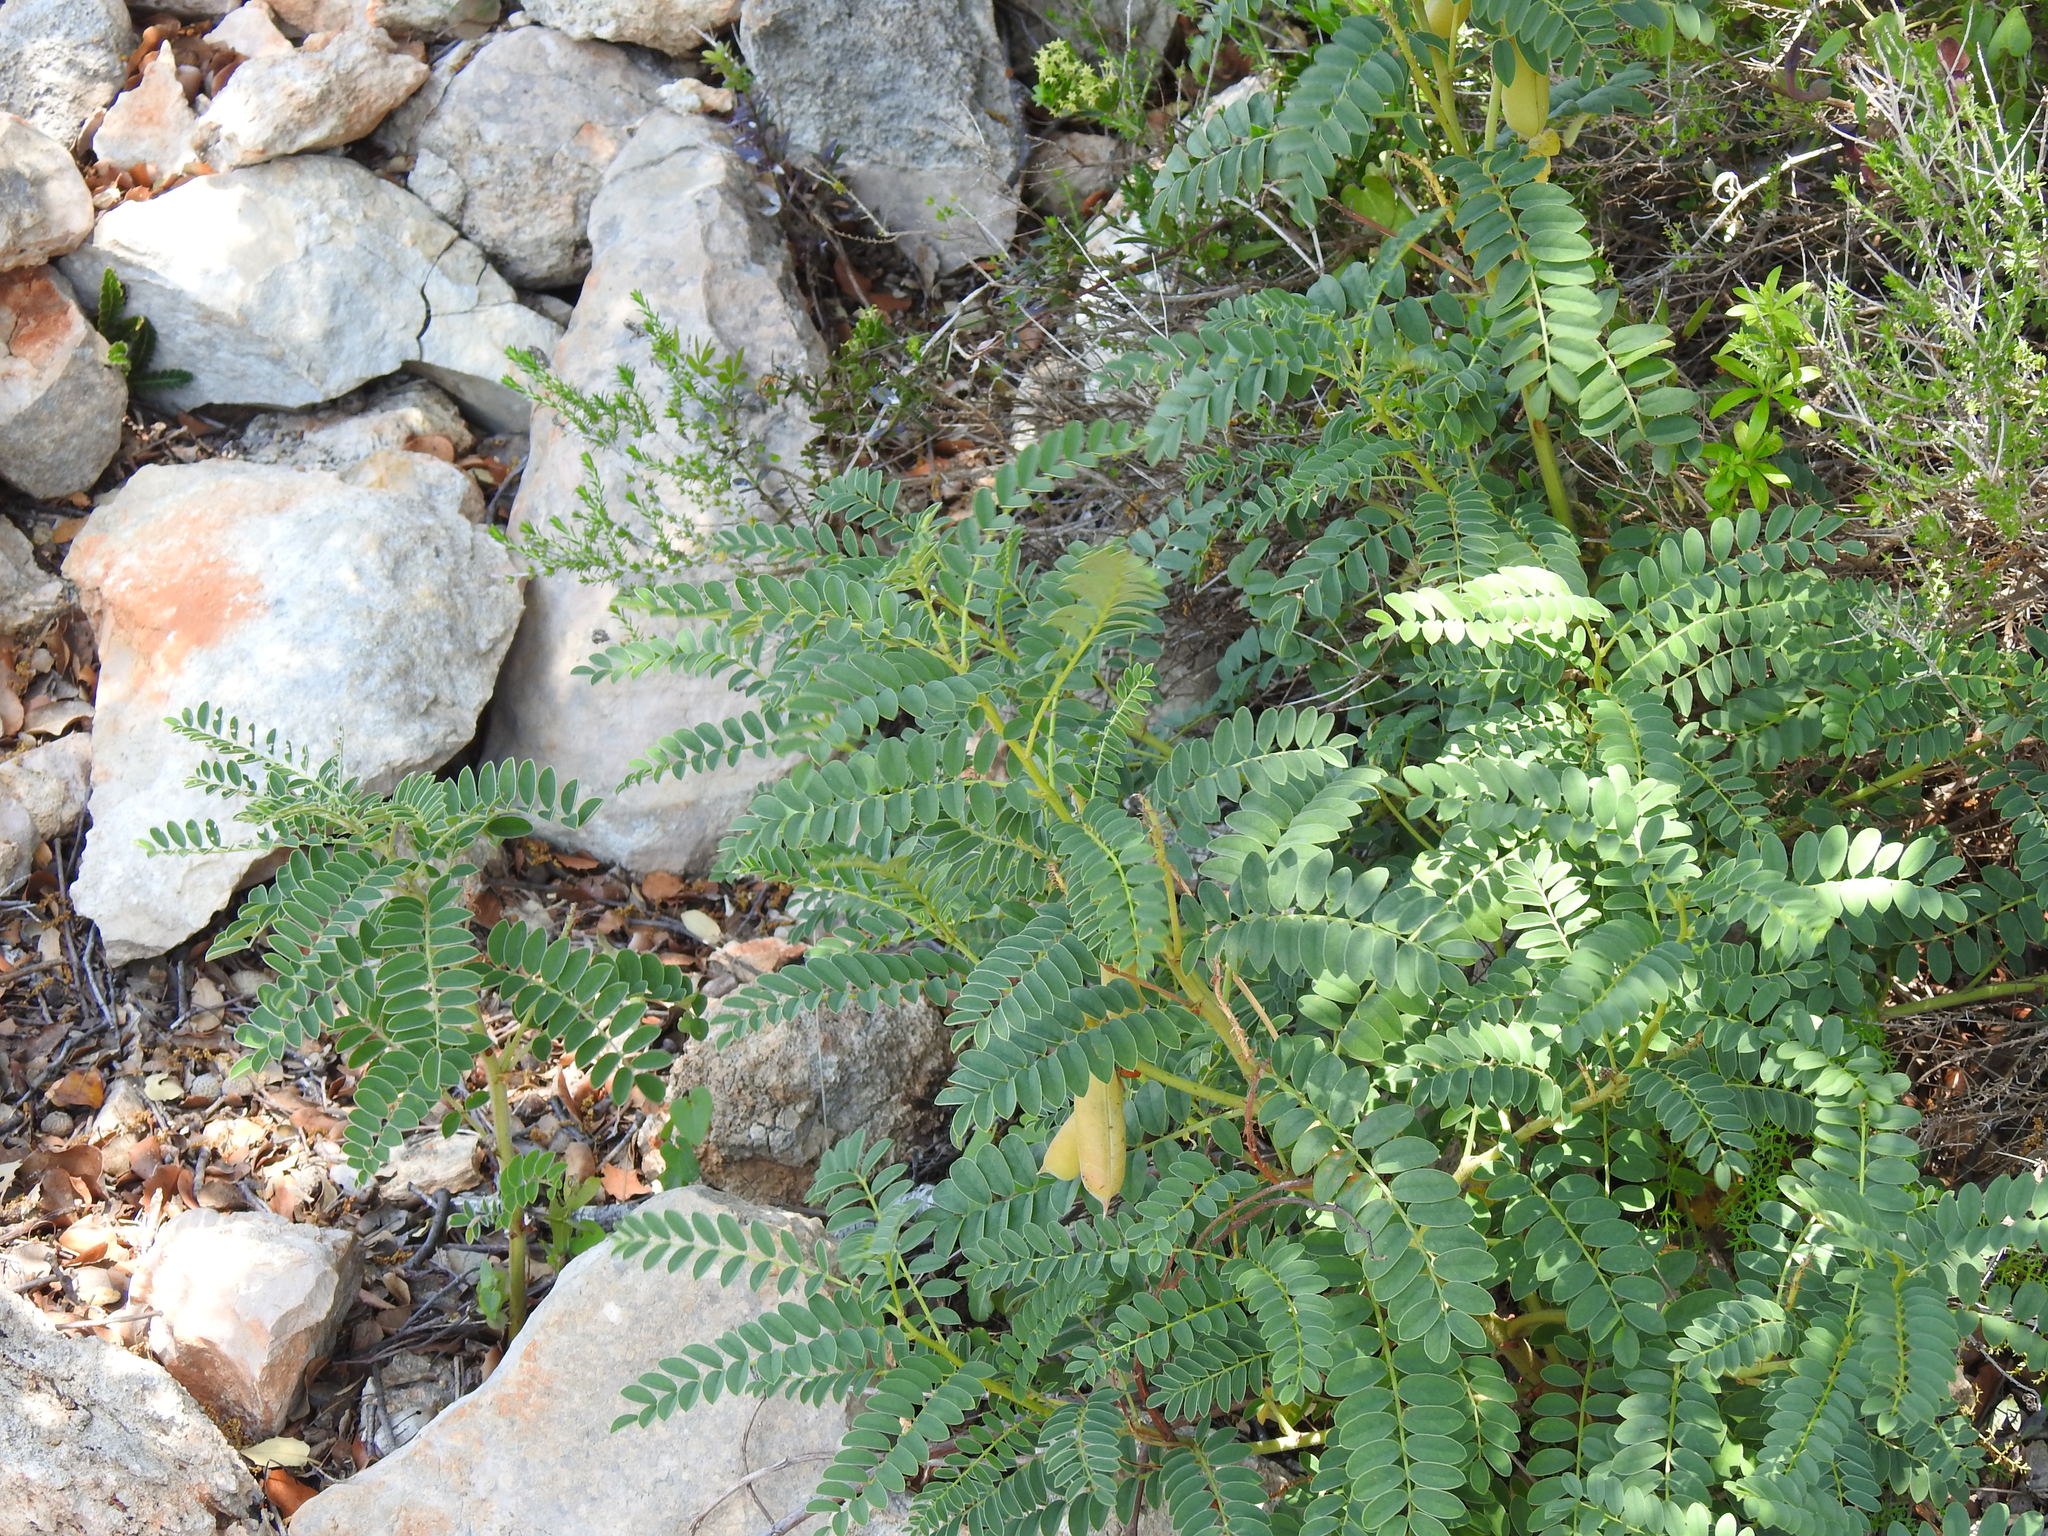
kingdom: Plantae
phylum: Tracheophyta
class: Magnoliopsida
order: Fabales
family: Fabaceae
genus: Erophaca
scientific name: Erophaca baetica
